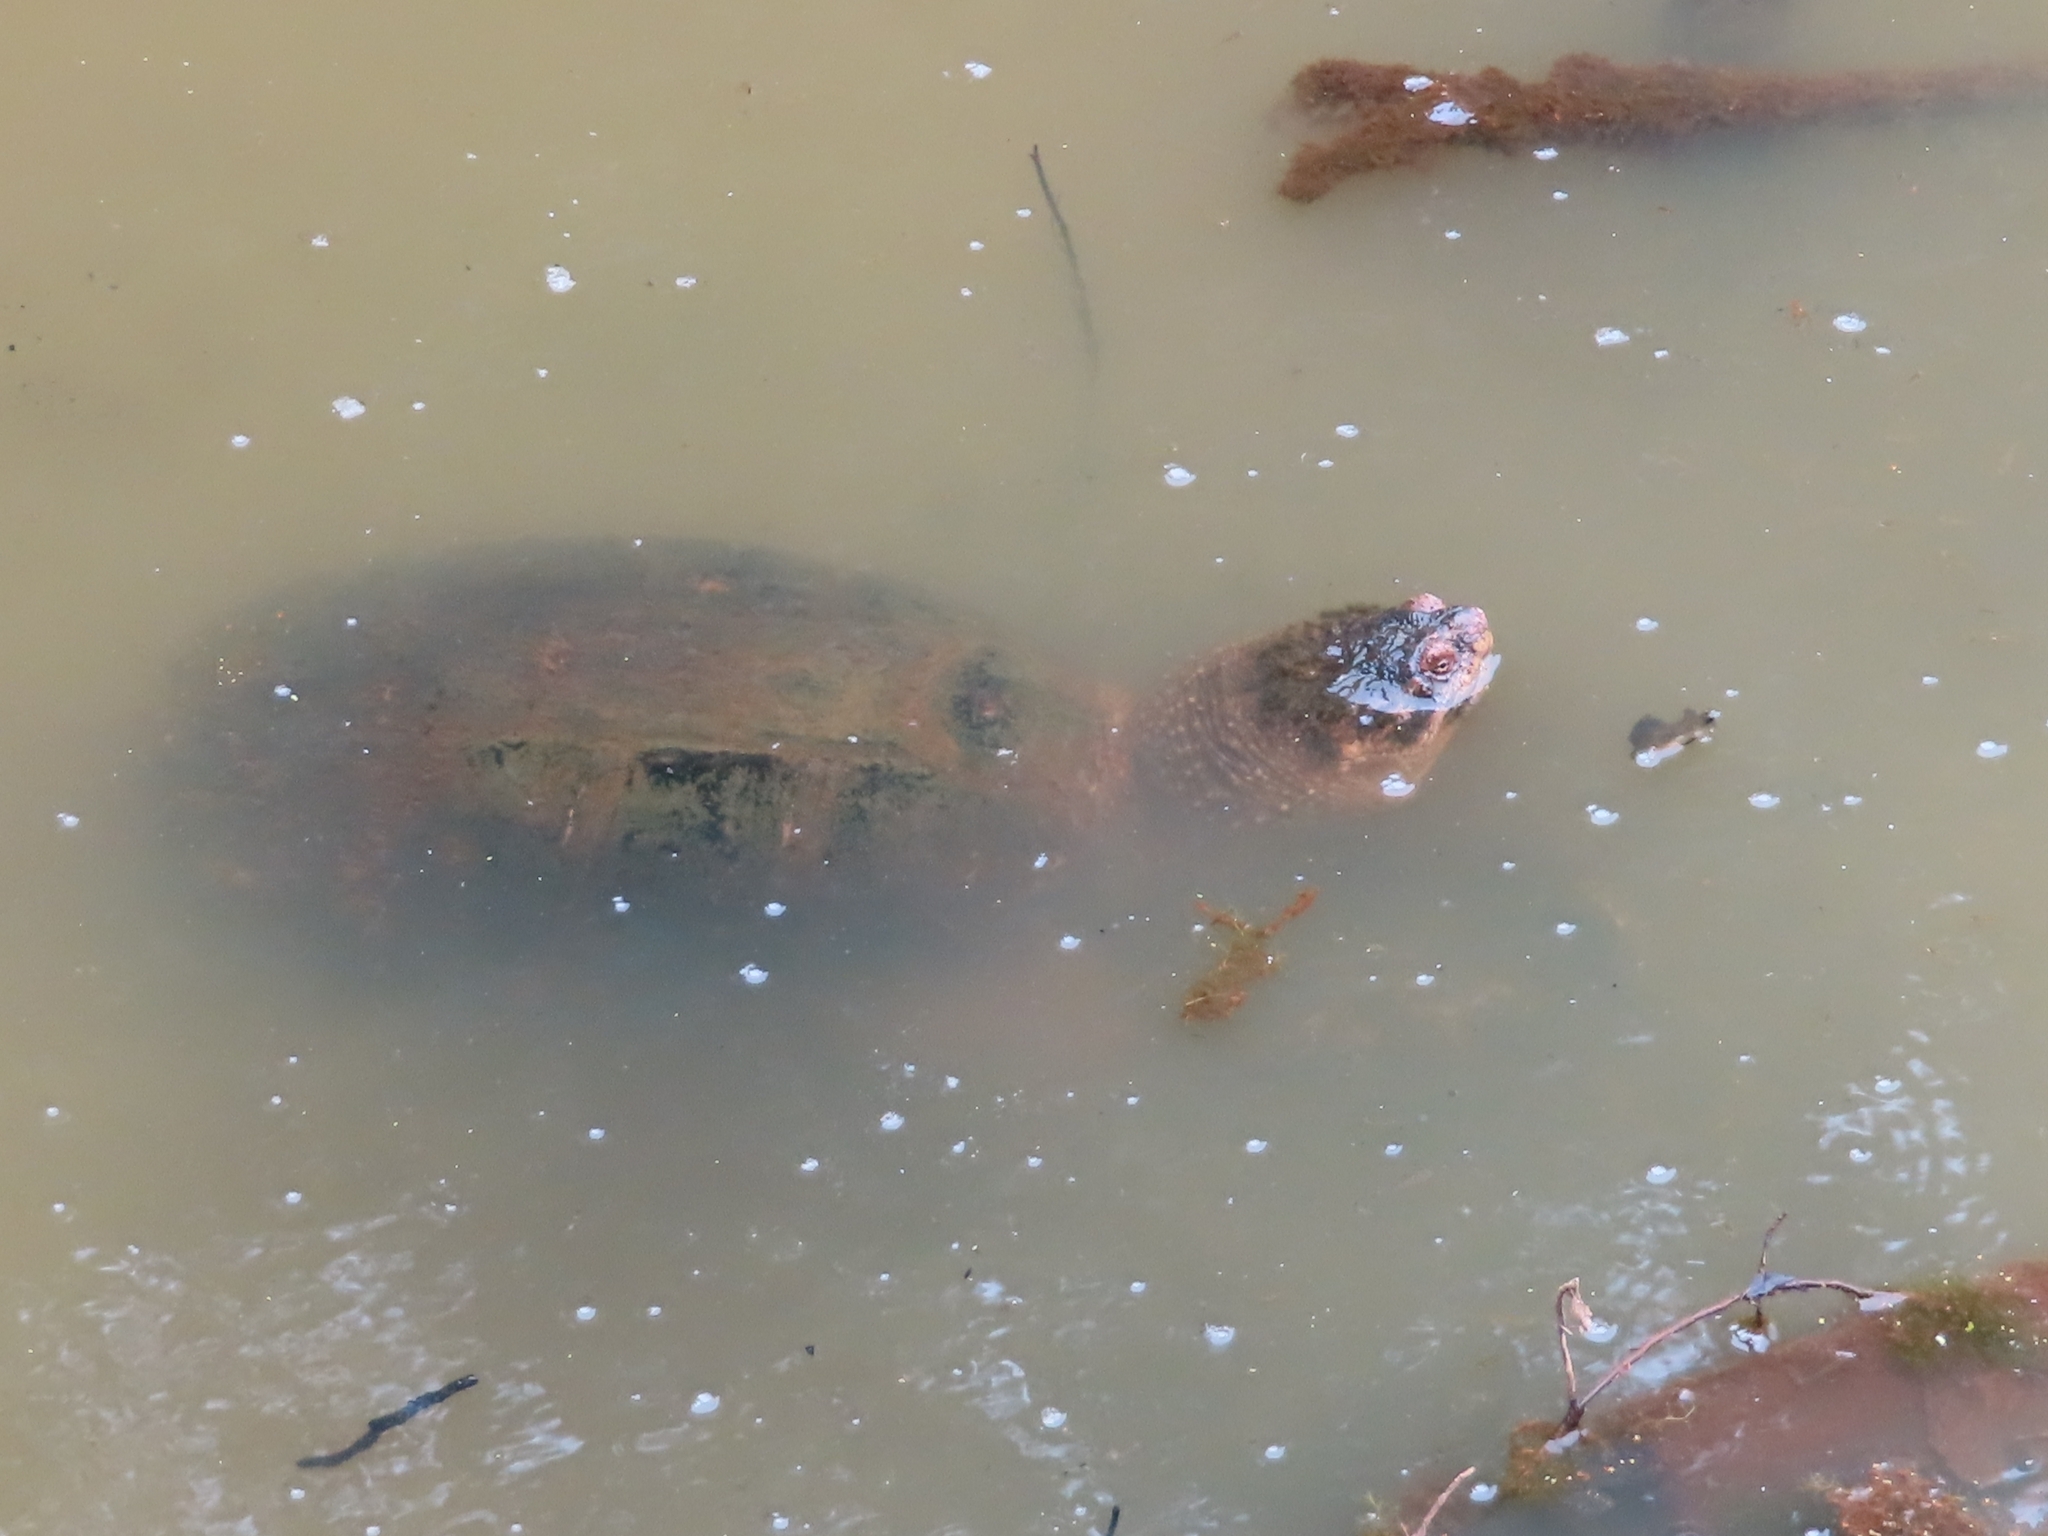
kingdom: Animalia
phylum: Chordata
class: Testudines
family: Chelydridae
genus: Chelydra
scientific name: Chelydra serpentina
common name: Common snapping turtle
